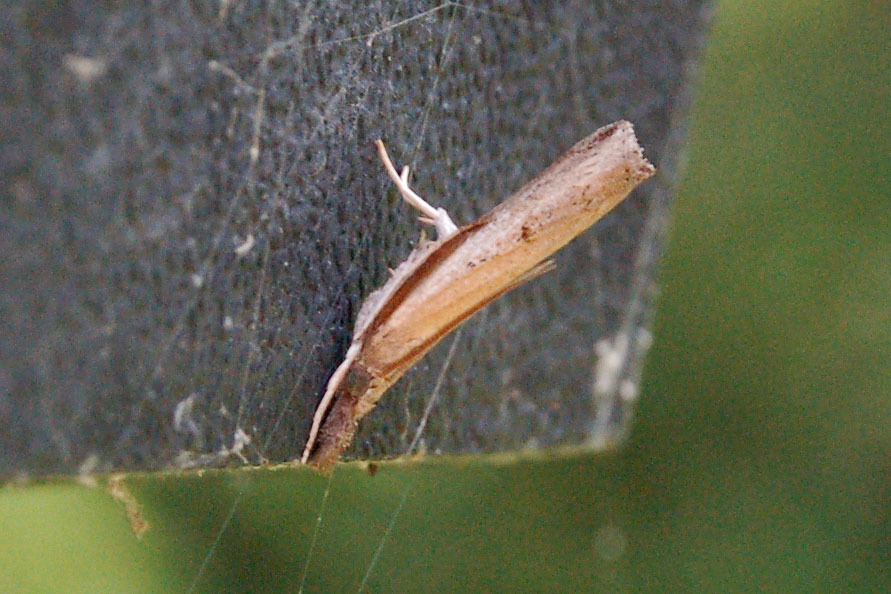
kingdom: Animalia
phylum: Arthropoda
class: Insecta
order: Lepidoptera
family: Crambidae
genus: Fissicrambus
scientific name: Fissicrambus mutabilis
